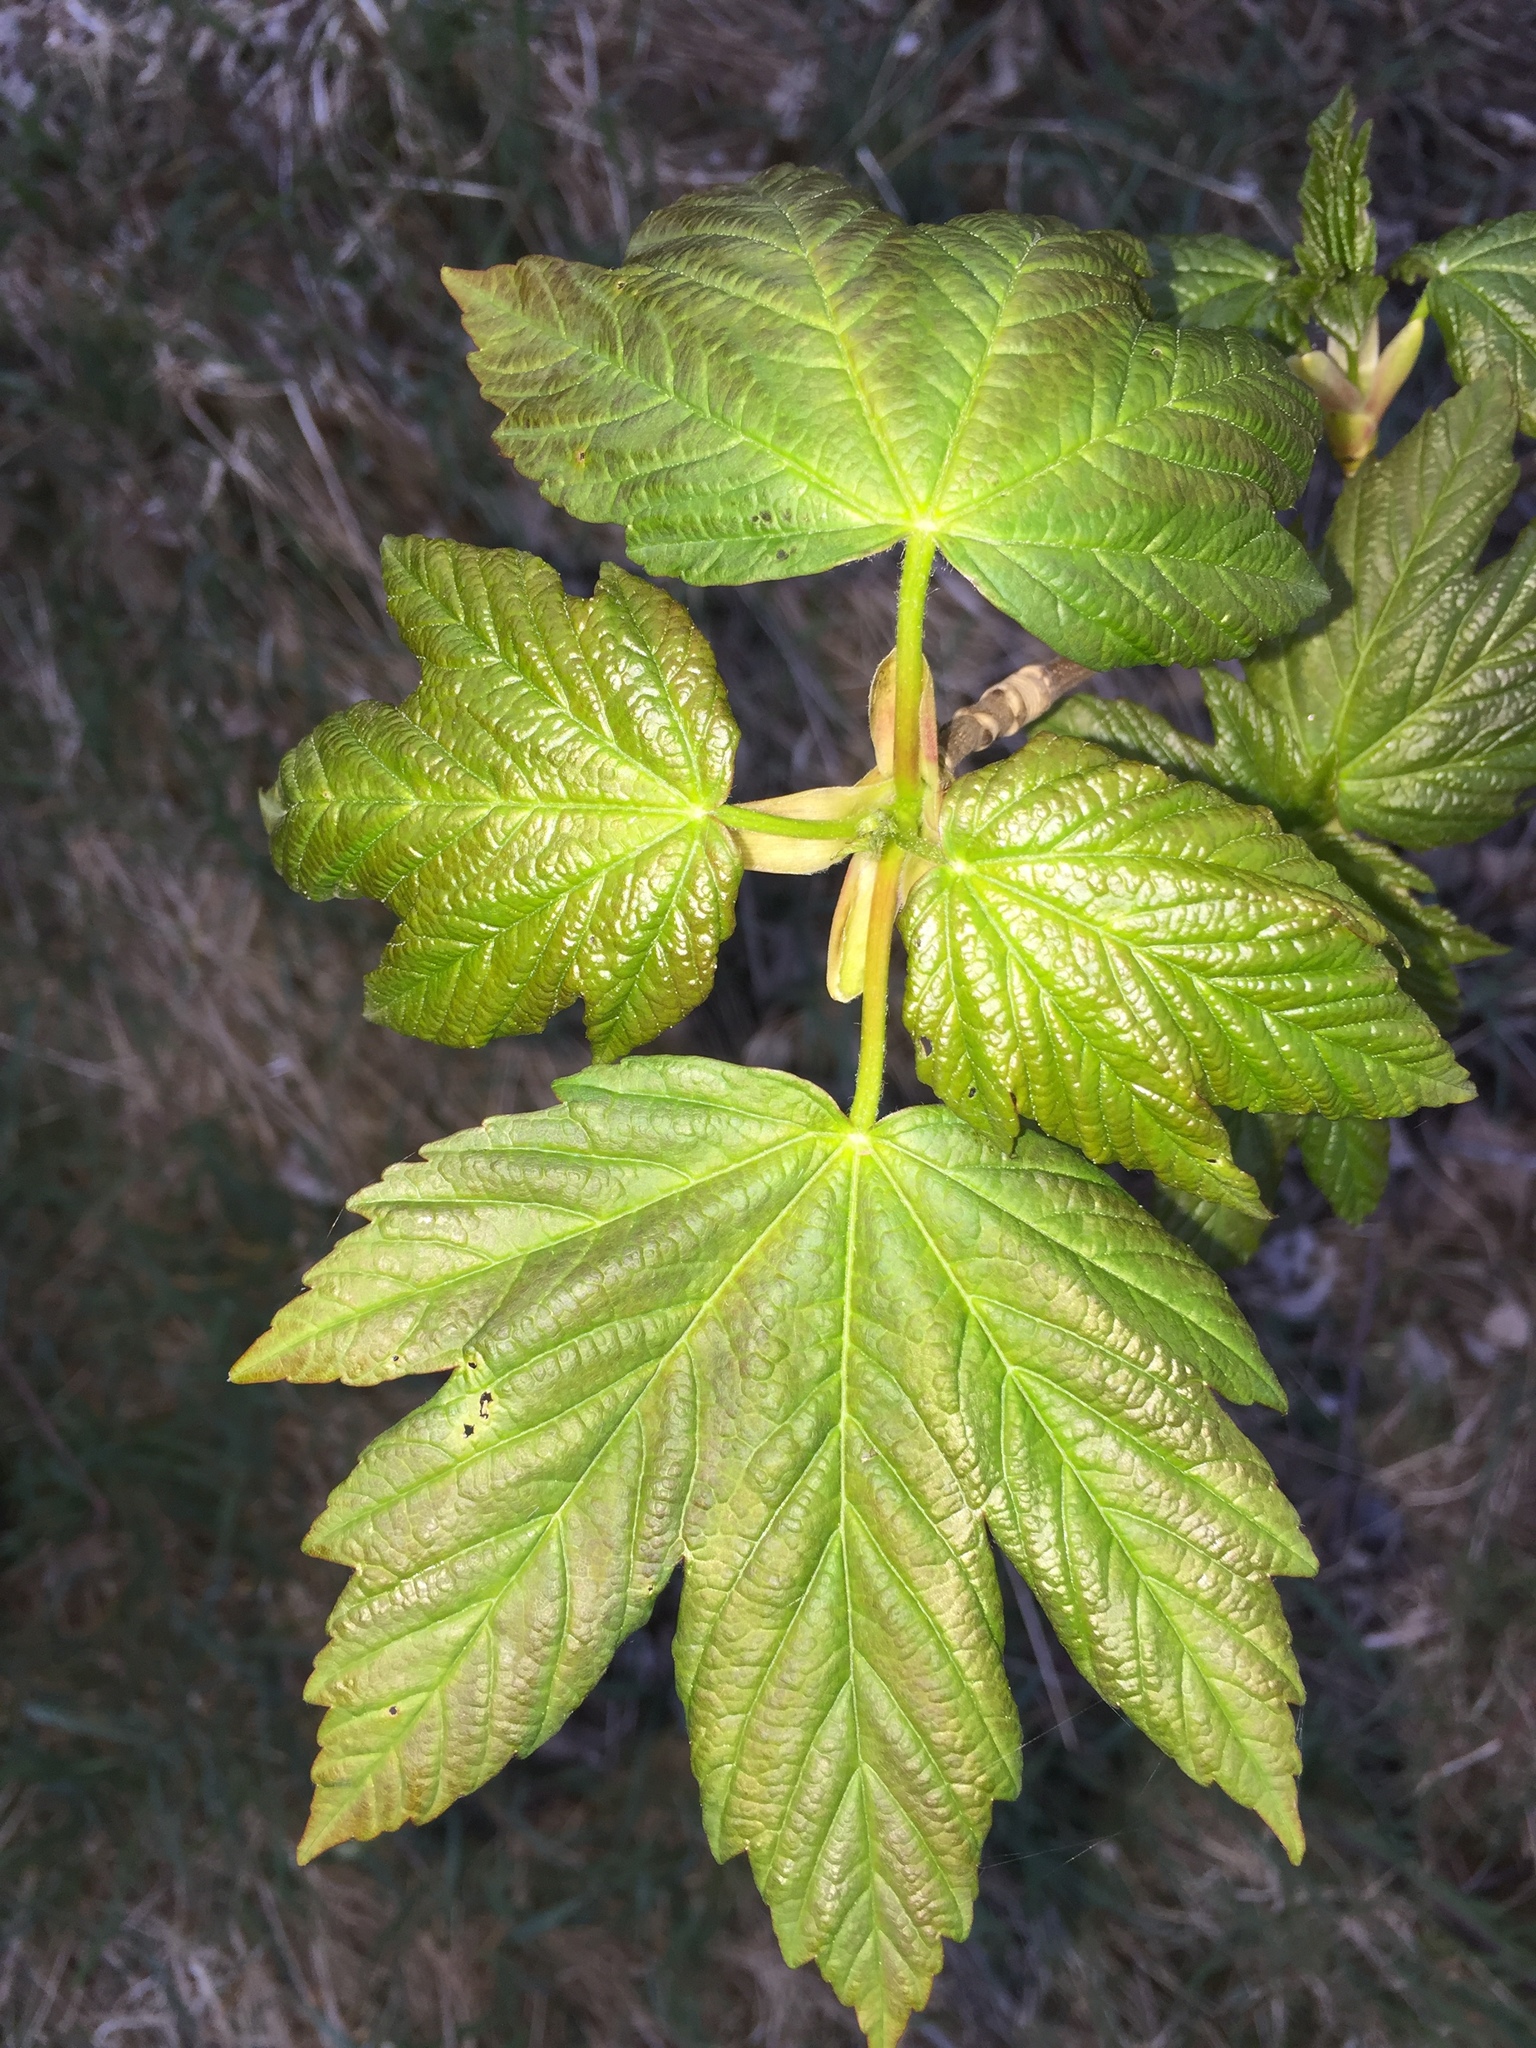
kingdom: Plantae
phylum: Tracheophyta
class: Magnoliopsida
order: Sapindales
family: Sapindaceae
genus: Acer
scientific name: Acer pseudoplatanus
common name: Sycamore
